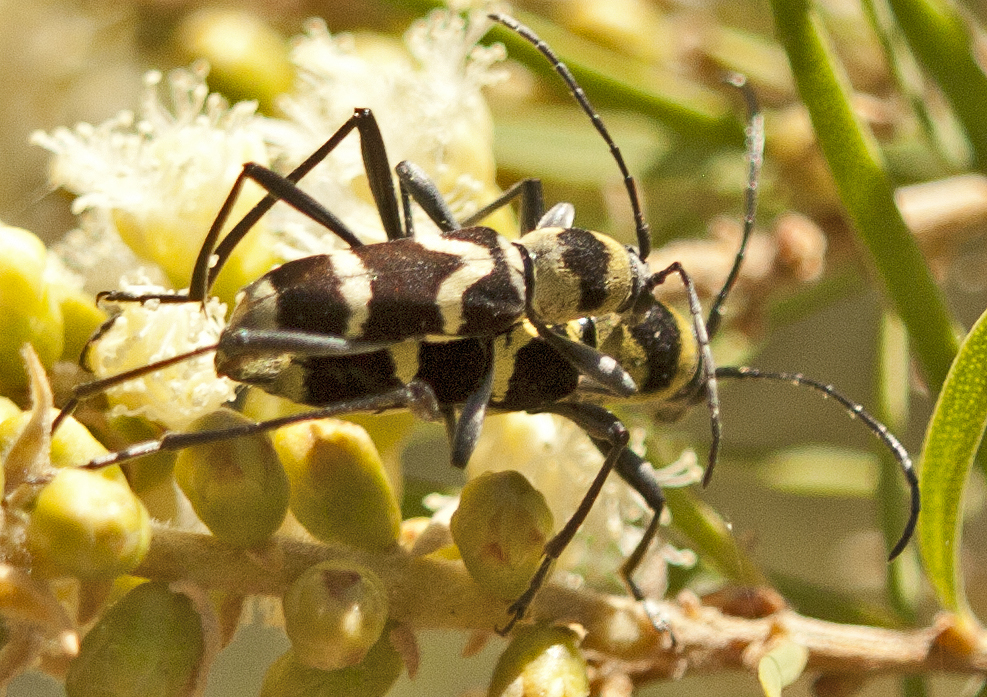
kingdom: Animalia
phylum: Arthropoda
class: Insecta
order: Coleoptera
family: Cerambycidae
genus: Clytus
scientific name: Clytus curtisi
